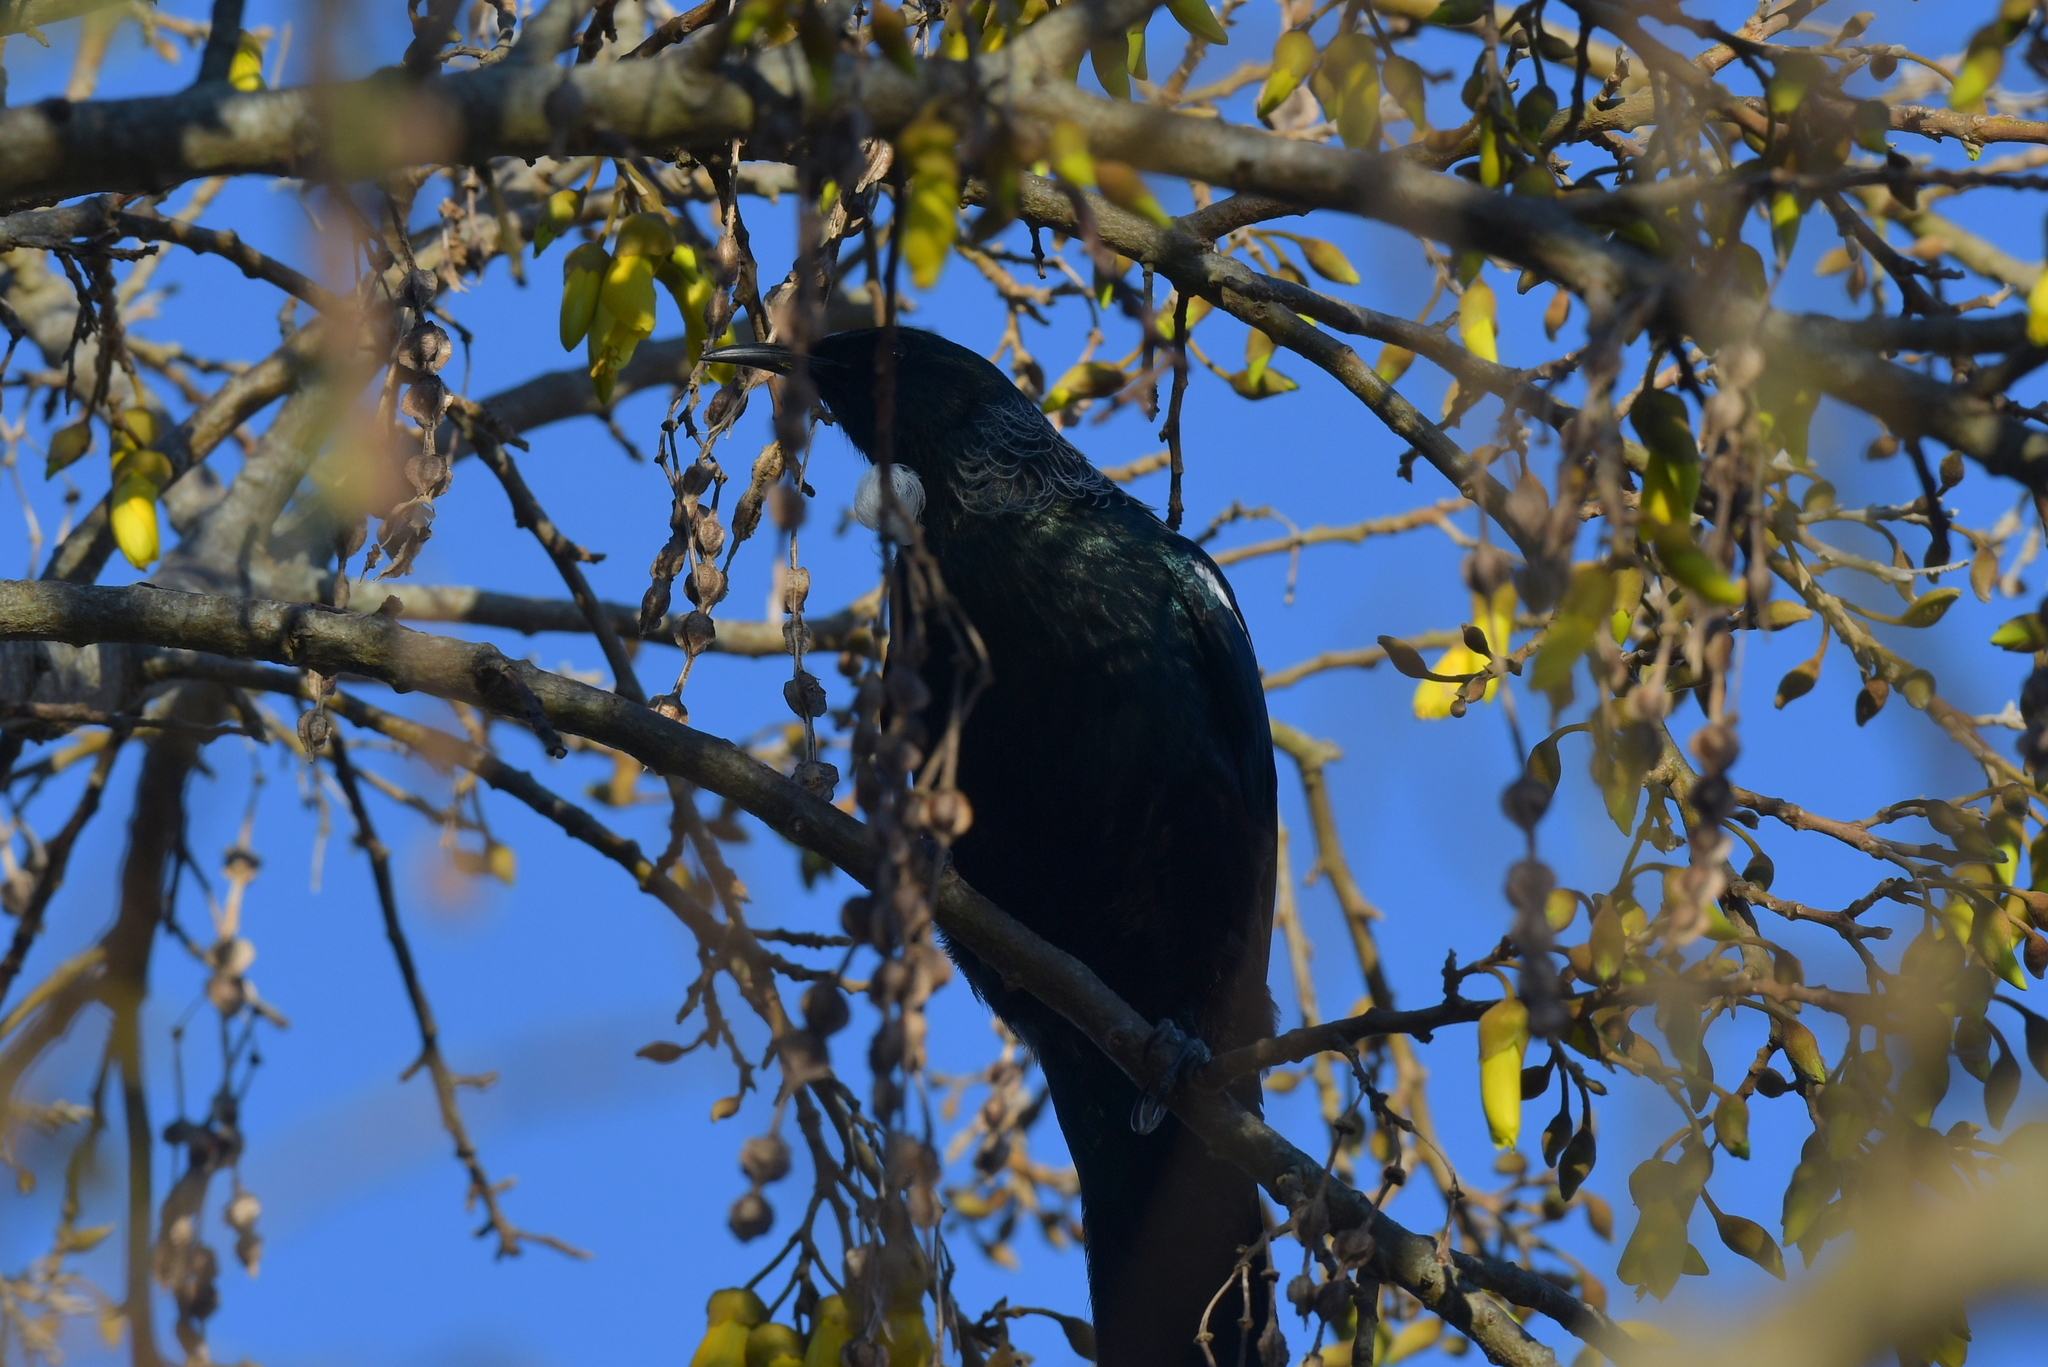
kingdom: Animalia
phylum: Chordata
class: Aves
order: Passeriformes
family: Meliphagidae
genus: Prosthemadera
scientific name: Prosthemadera novaeseelandiae
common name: Tui
